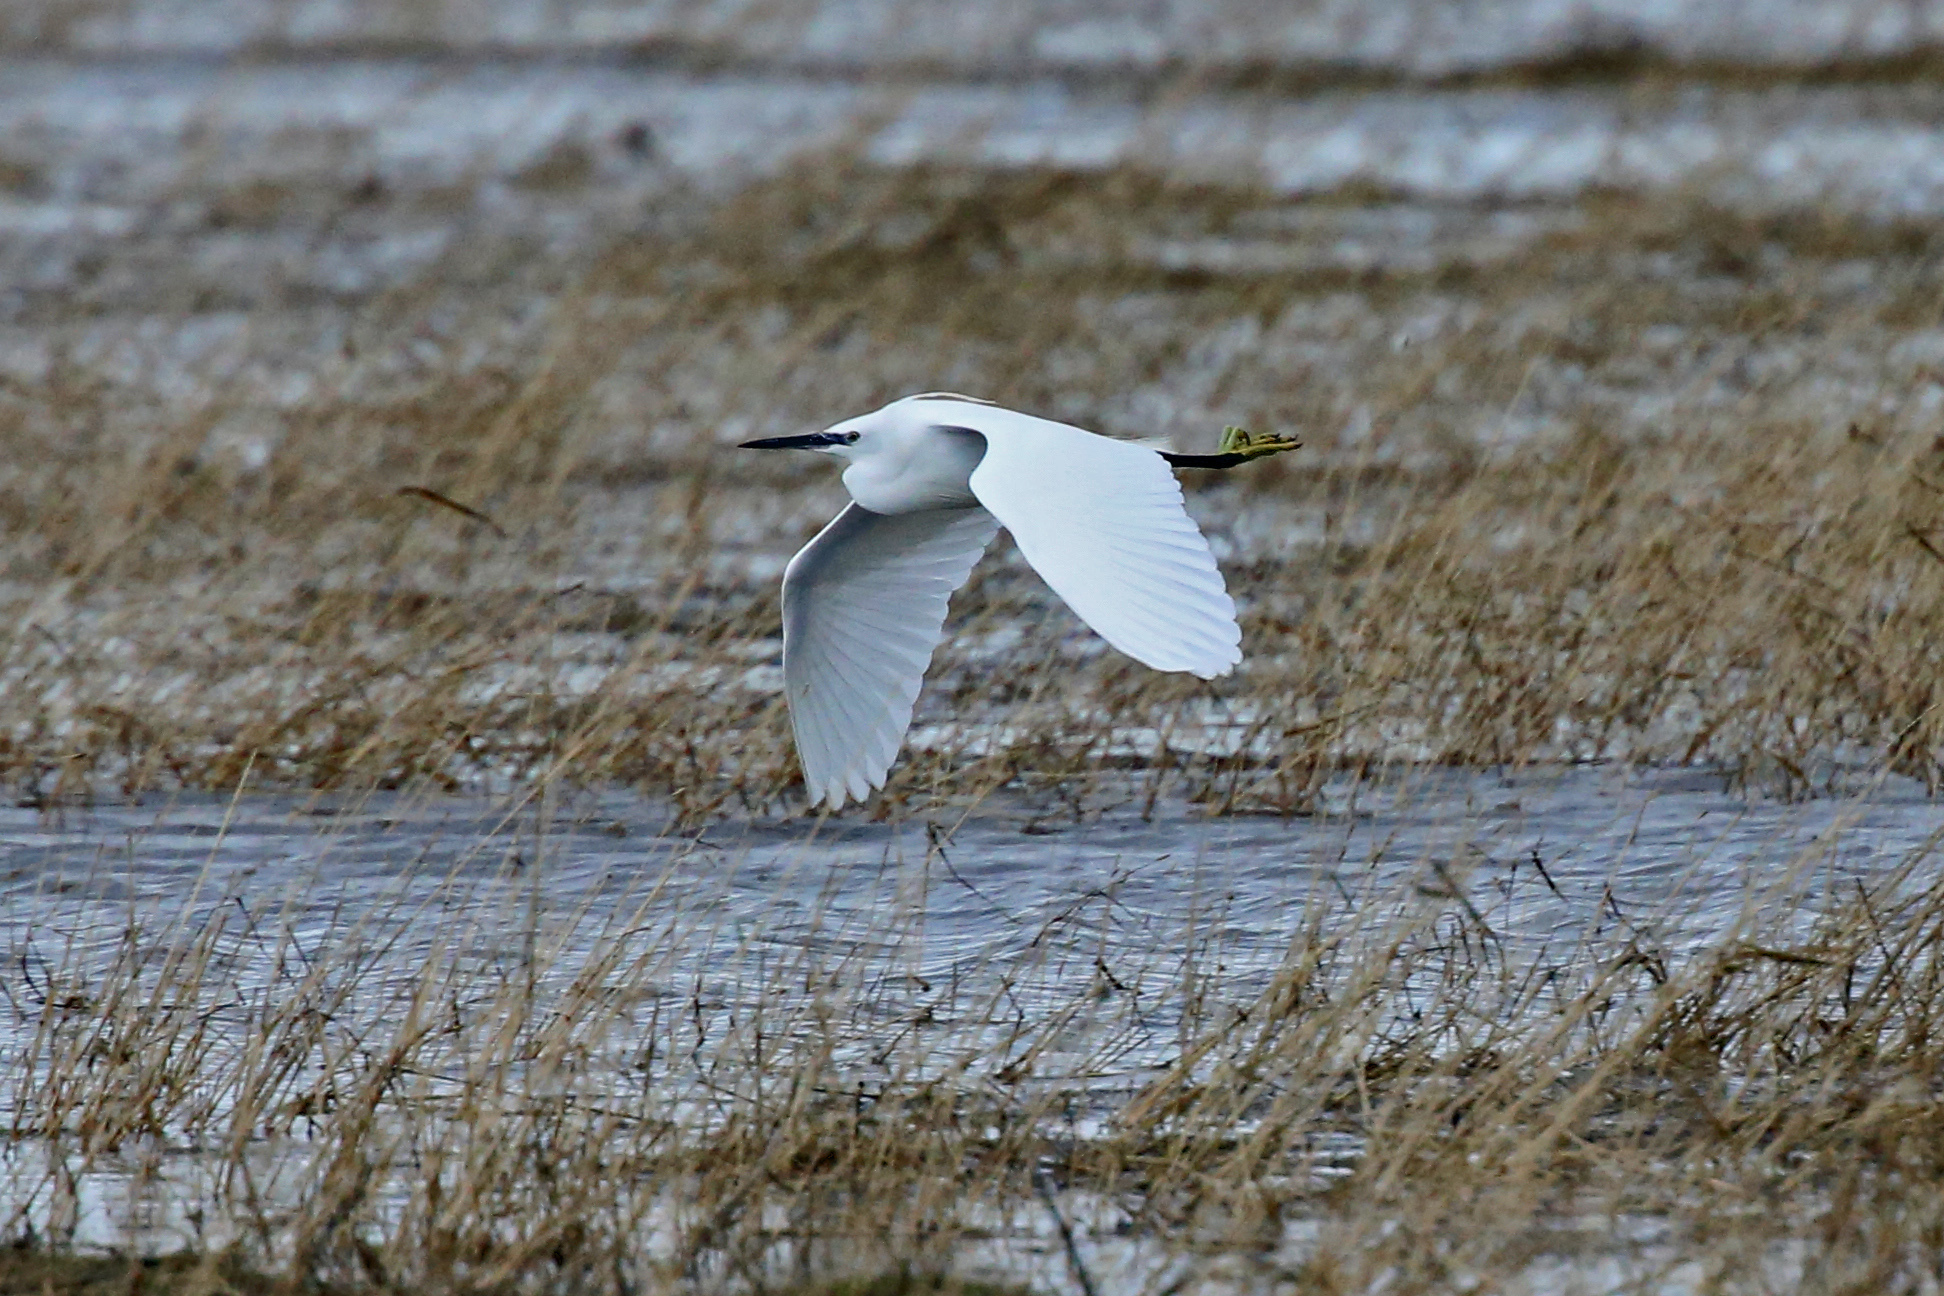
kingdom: Animalia
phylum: Chordata
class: Aves
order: Pelecaniformes
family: Ardeidae
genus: Egretta
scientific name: Egretta garzetta
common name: Little egret
